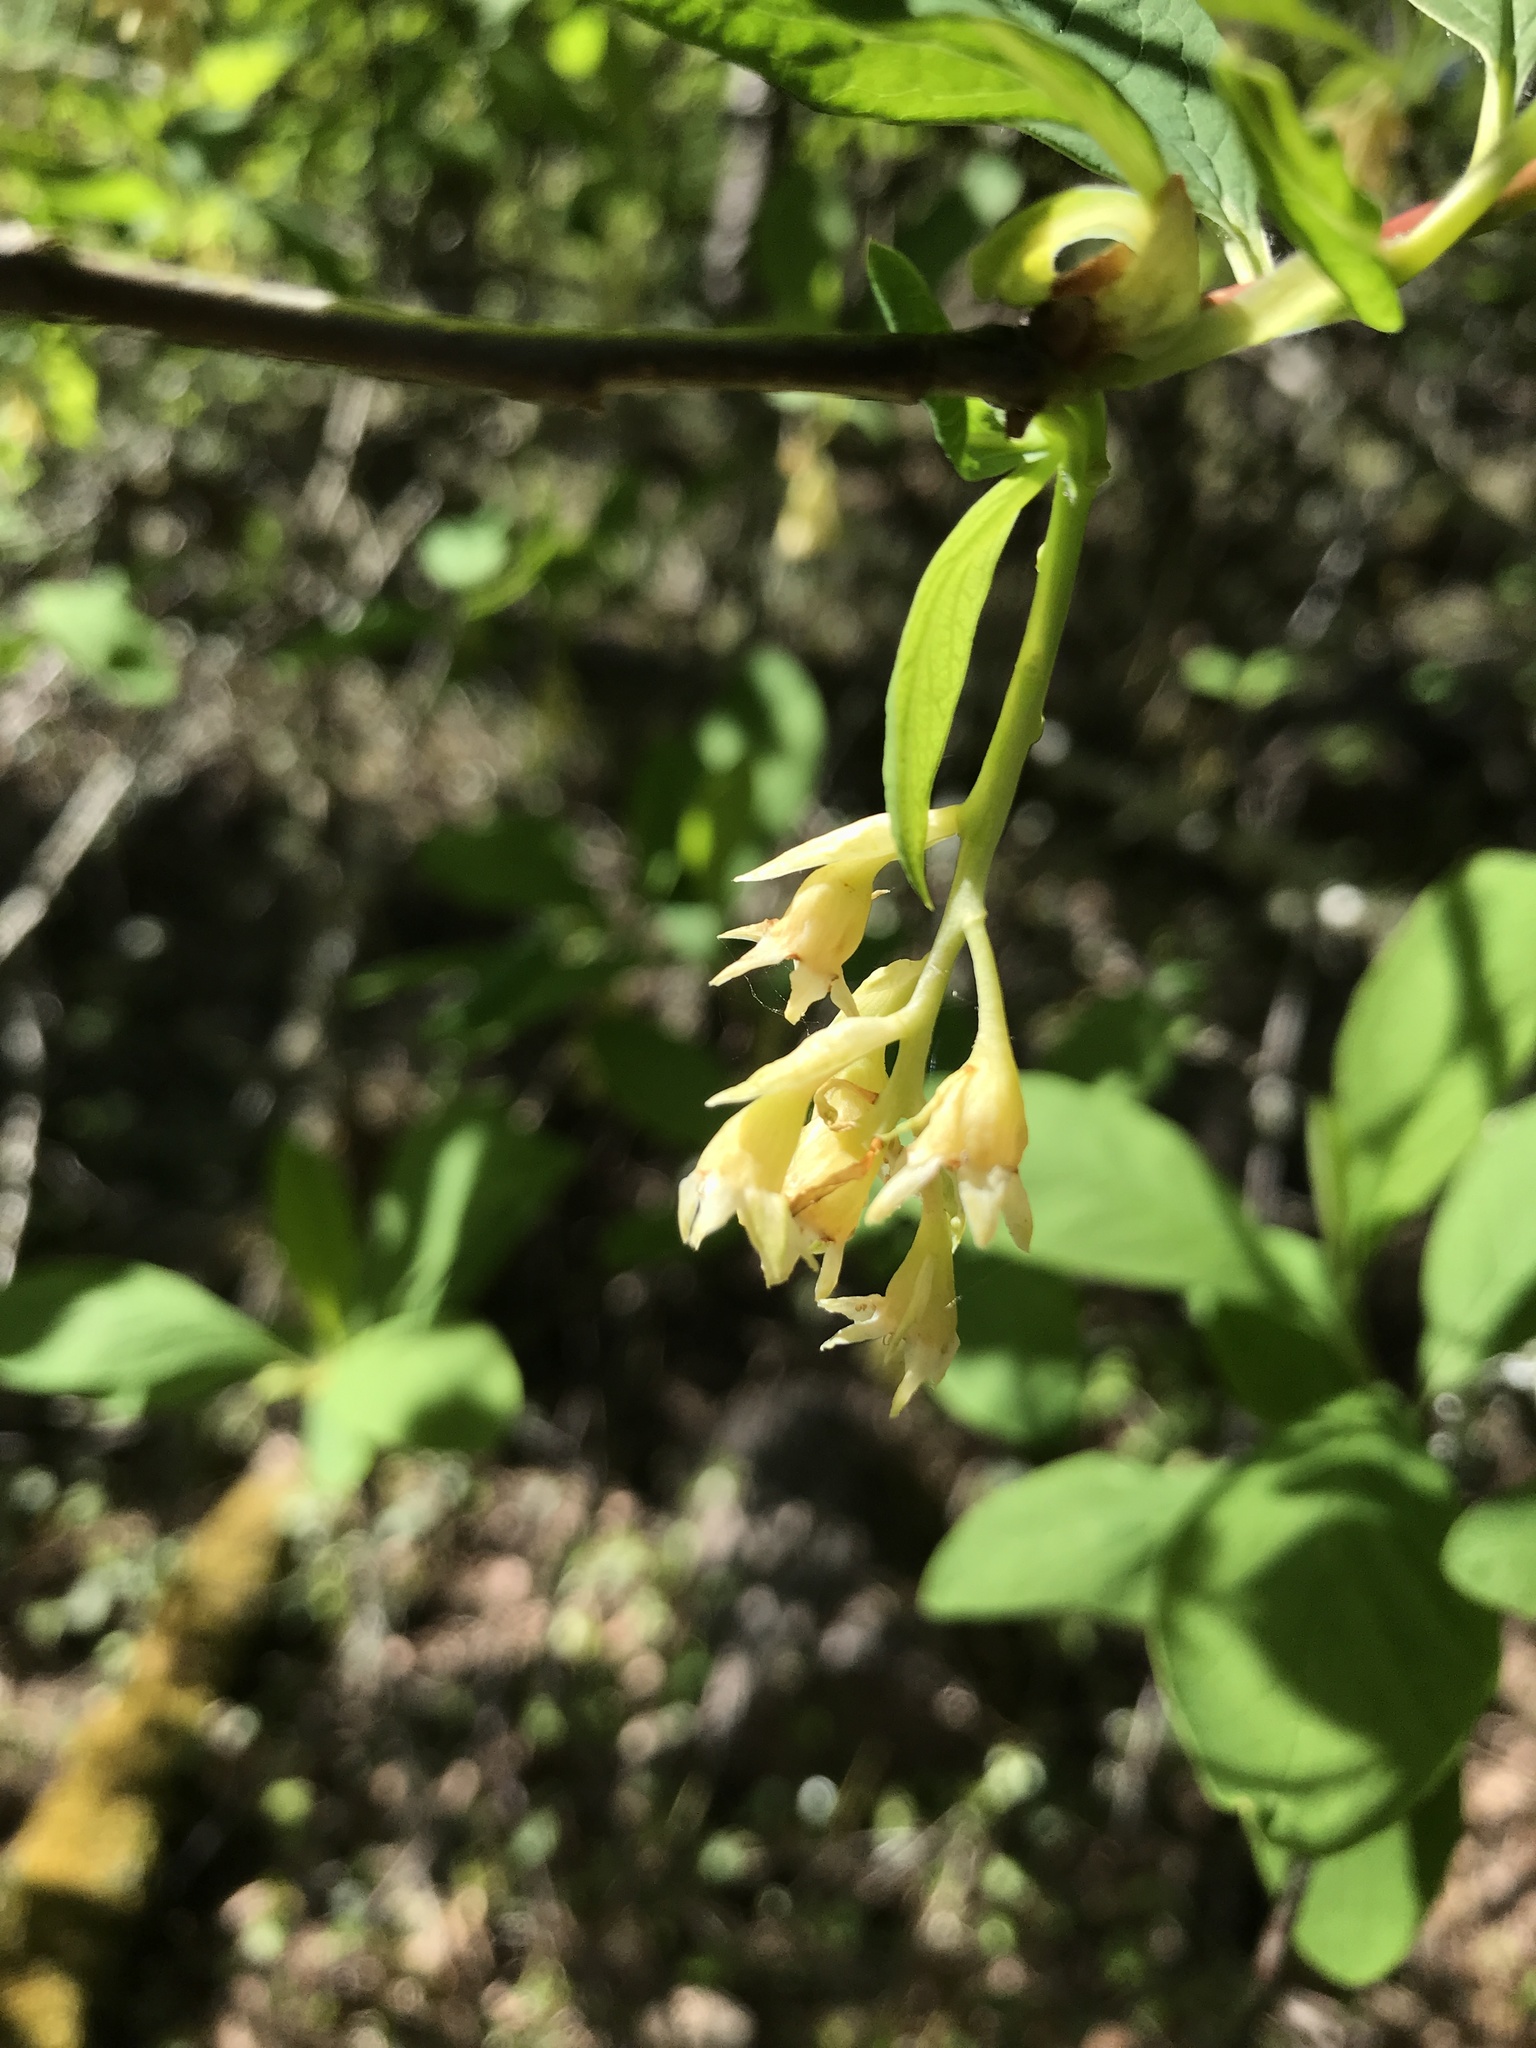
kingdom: Plantae
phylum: Tracheophyta
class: Magnoliopsida
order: Rosales
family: Rosaceae
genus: Oemleria
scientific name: Oemleria cerasiformis
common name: Osoberry
